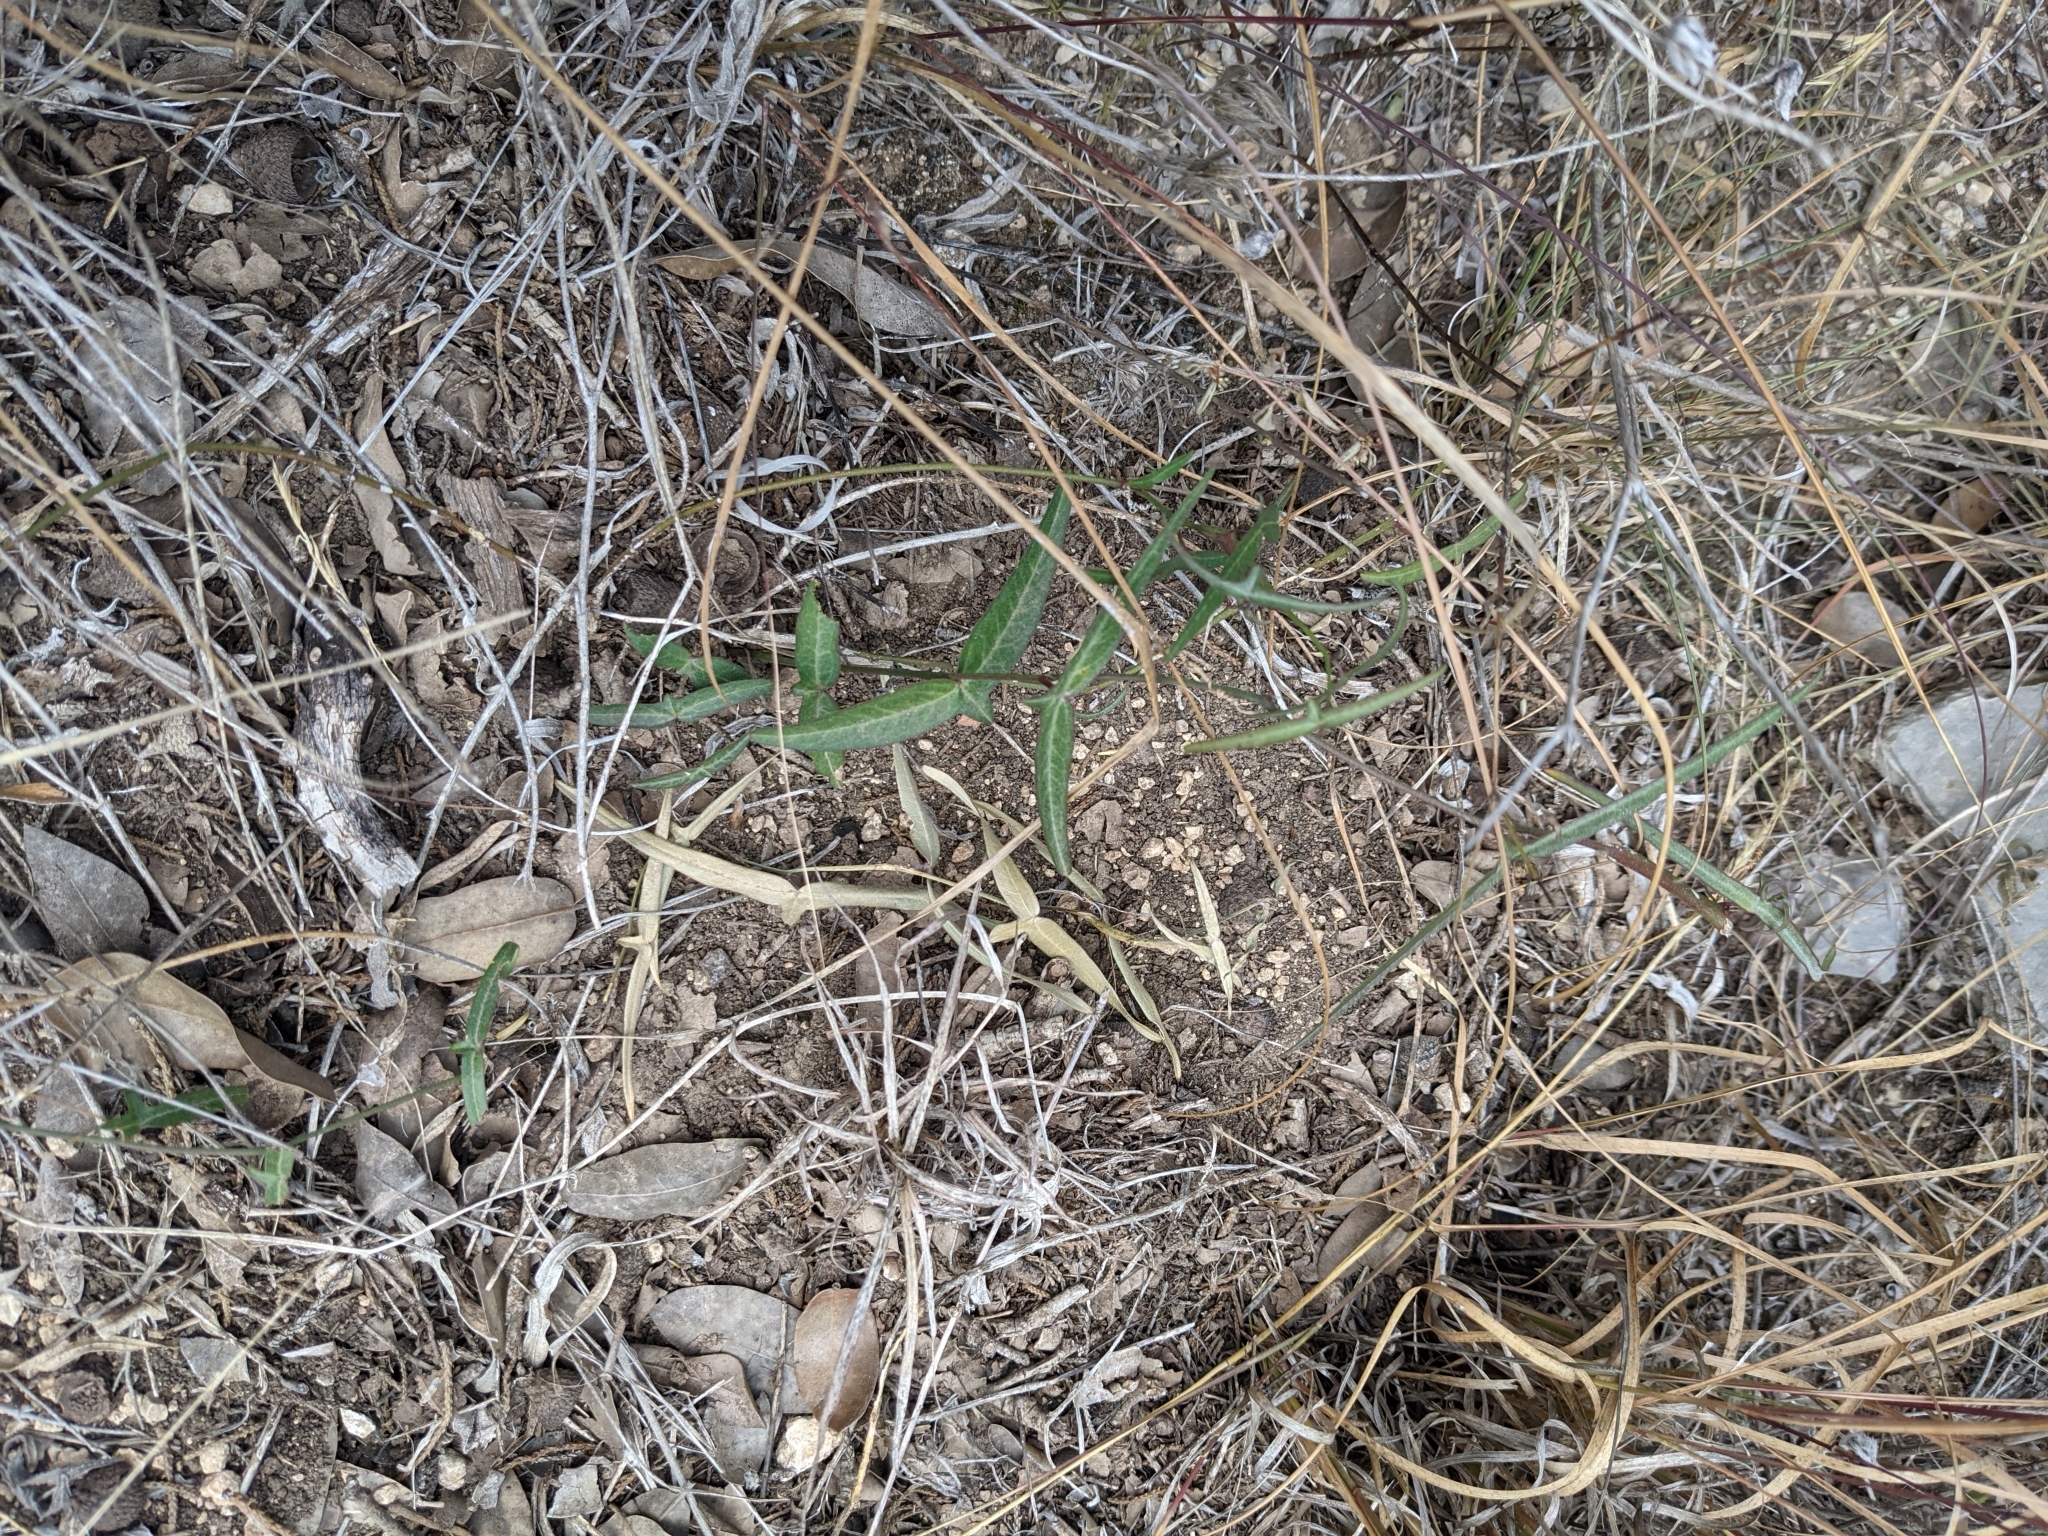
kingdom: Plantae
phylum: Tracheophyta
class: Magnoliopsida
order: Malpighiales
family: Passifloraceae
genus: Passiflora
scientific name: Passiflora tenuiloba
